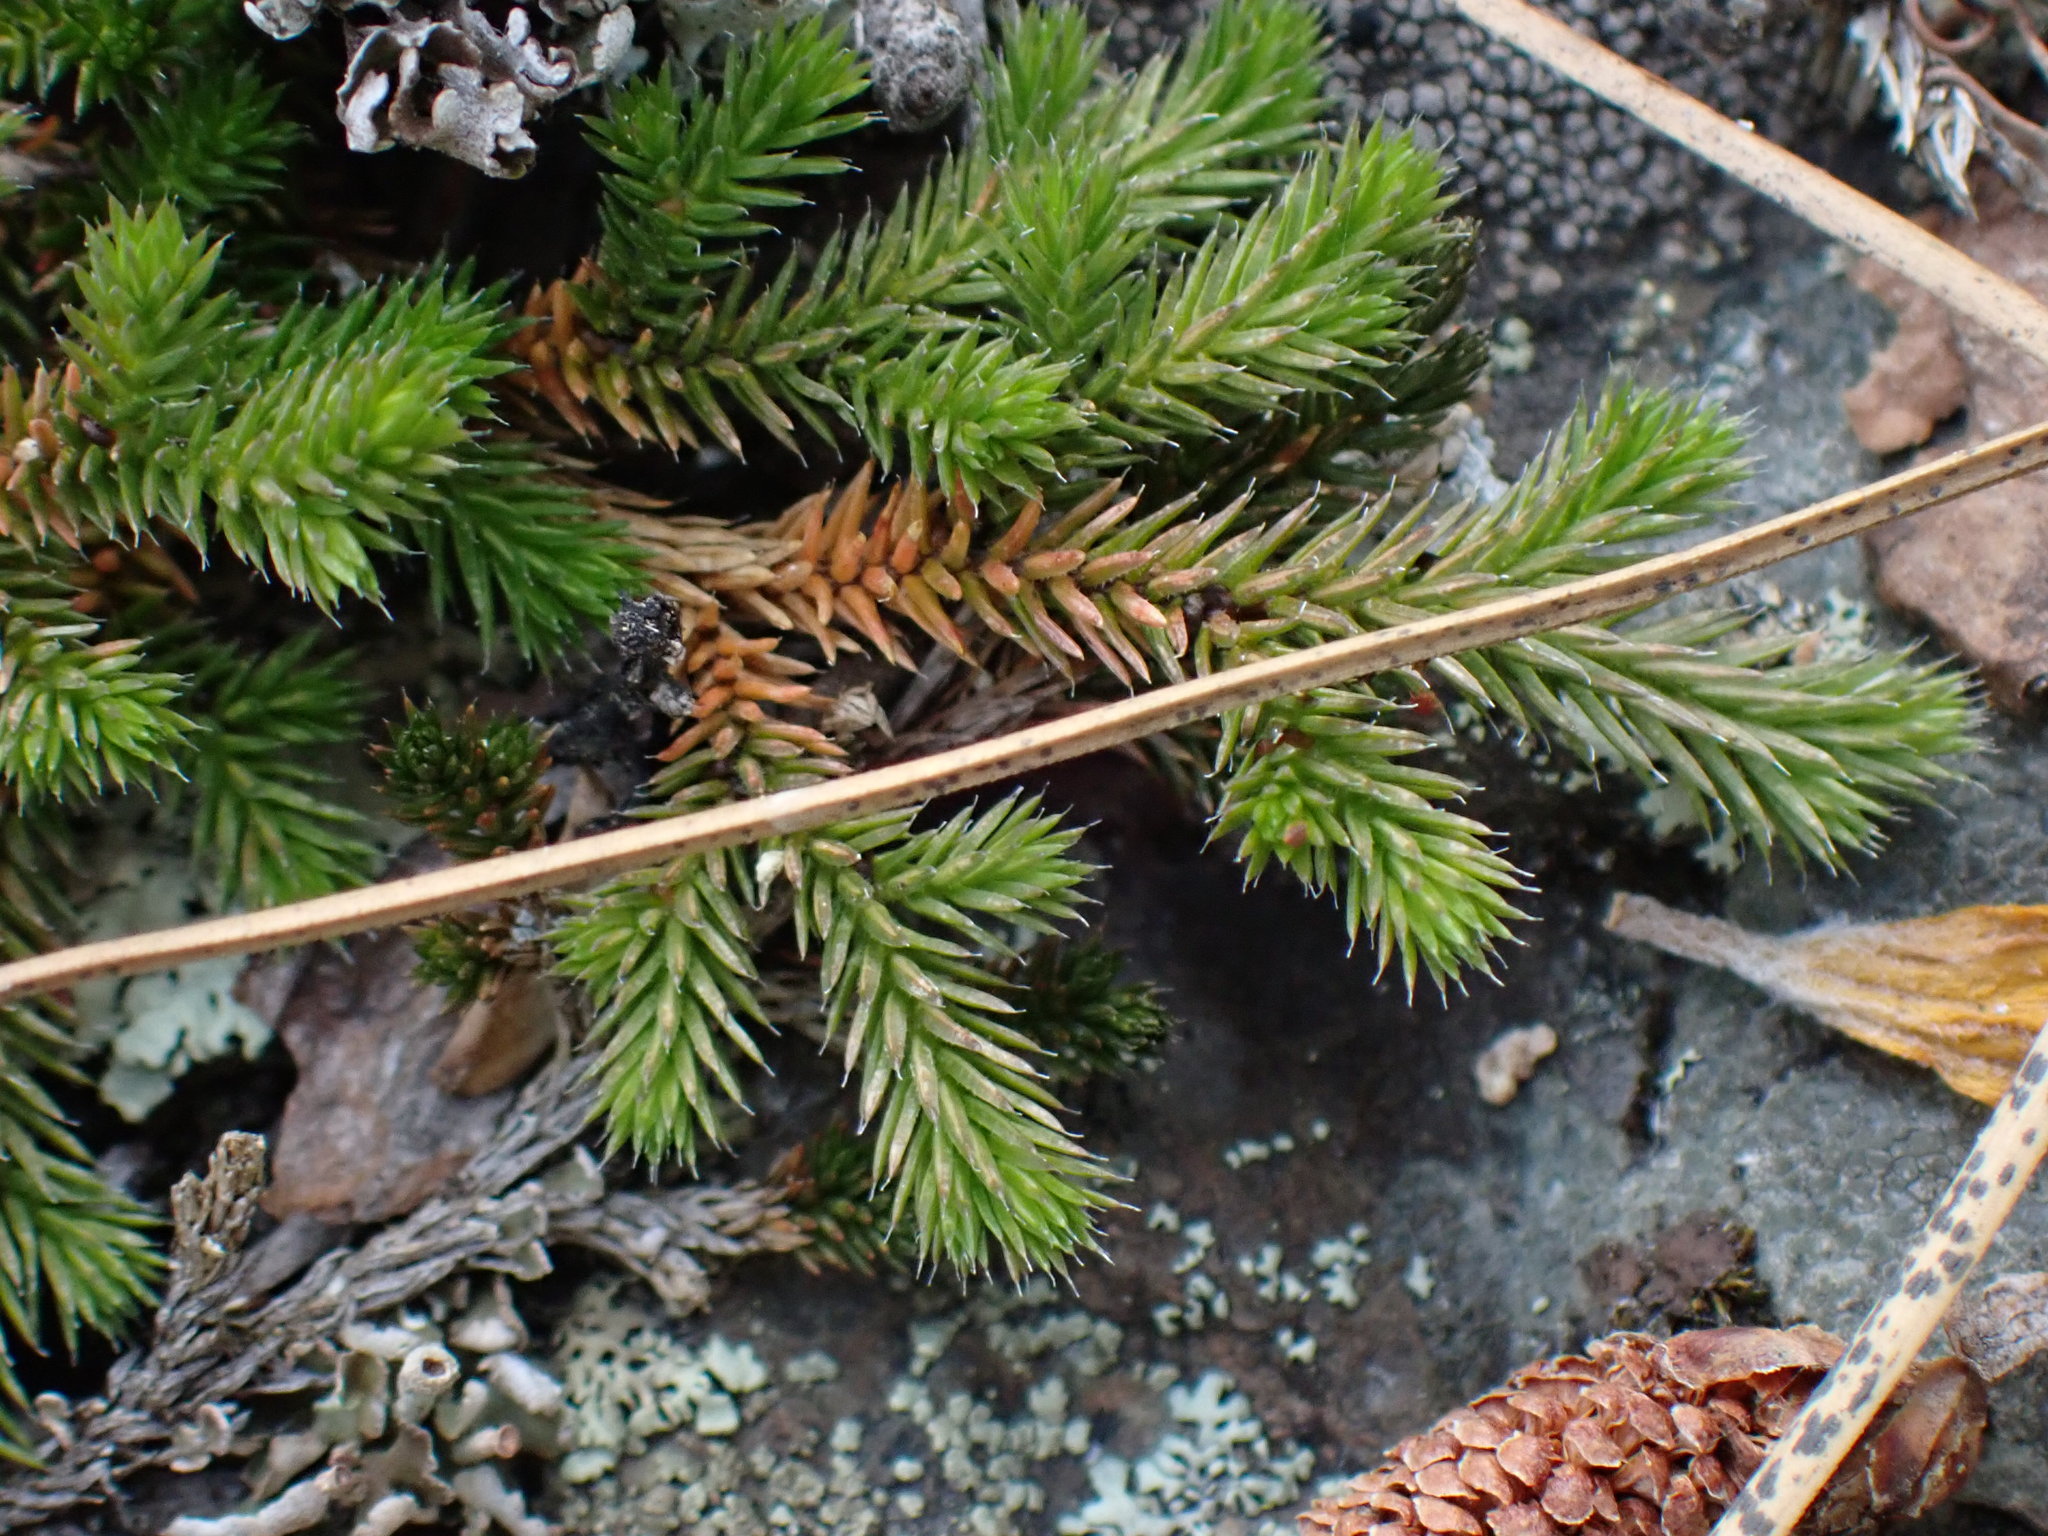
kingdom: Plantae
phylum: Tracheophyta
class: Lycopodiopsida
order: Selaginellales
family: Selaginellaceae
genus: Selaginella
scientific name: Selaginella wallacei
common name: Wallace's selaginella
